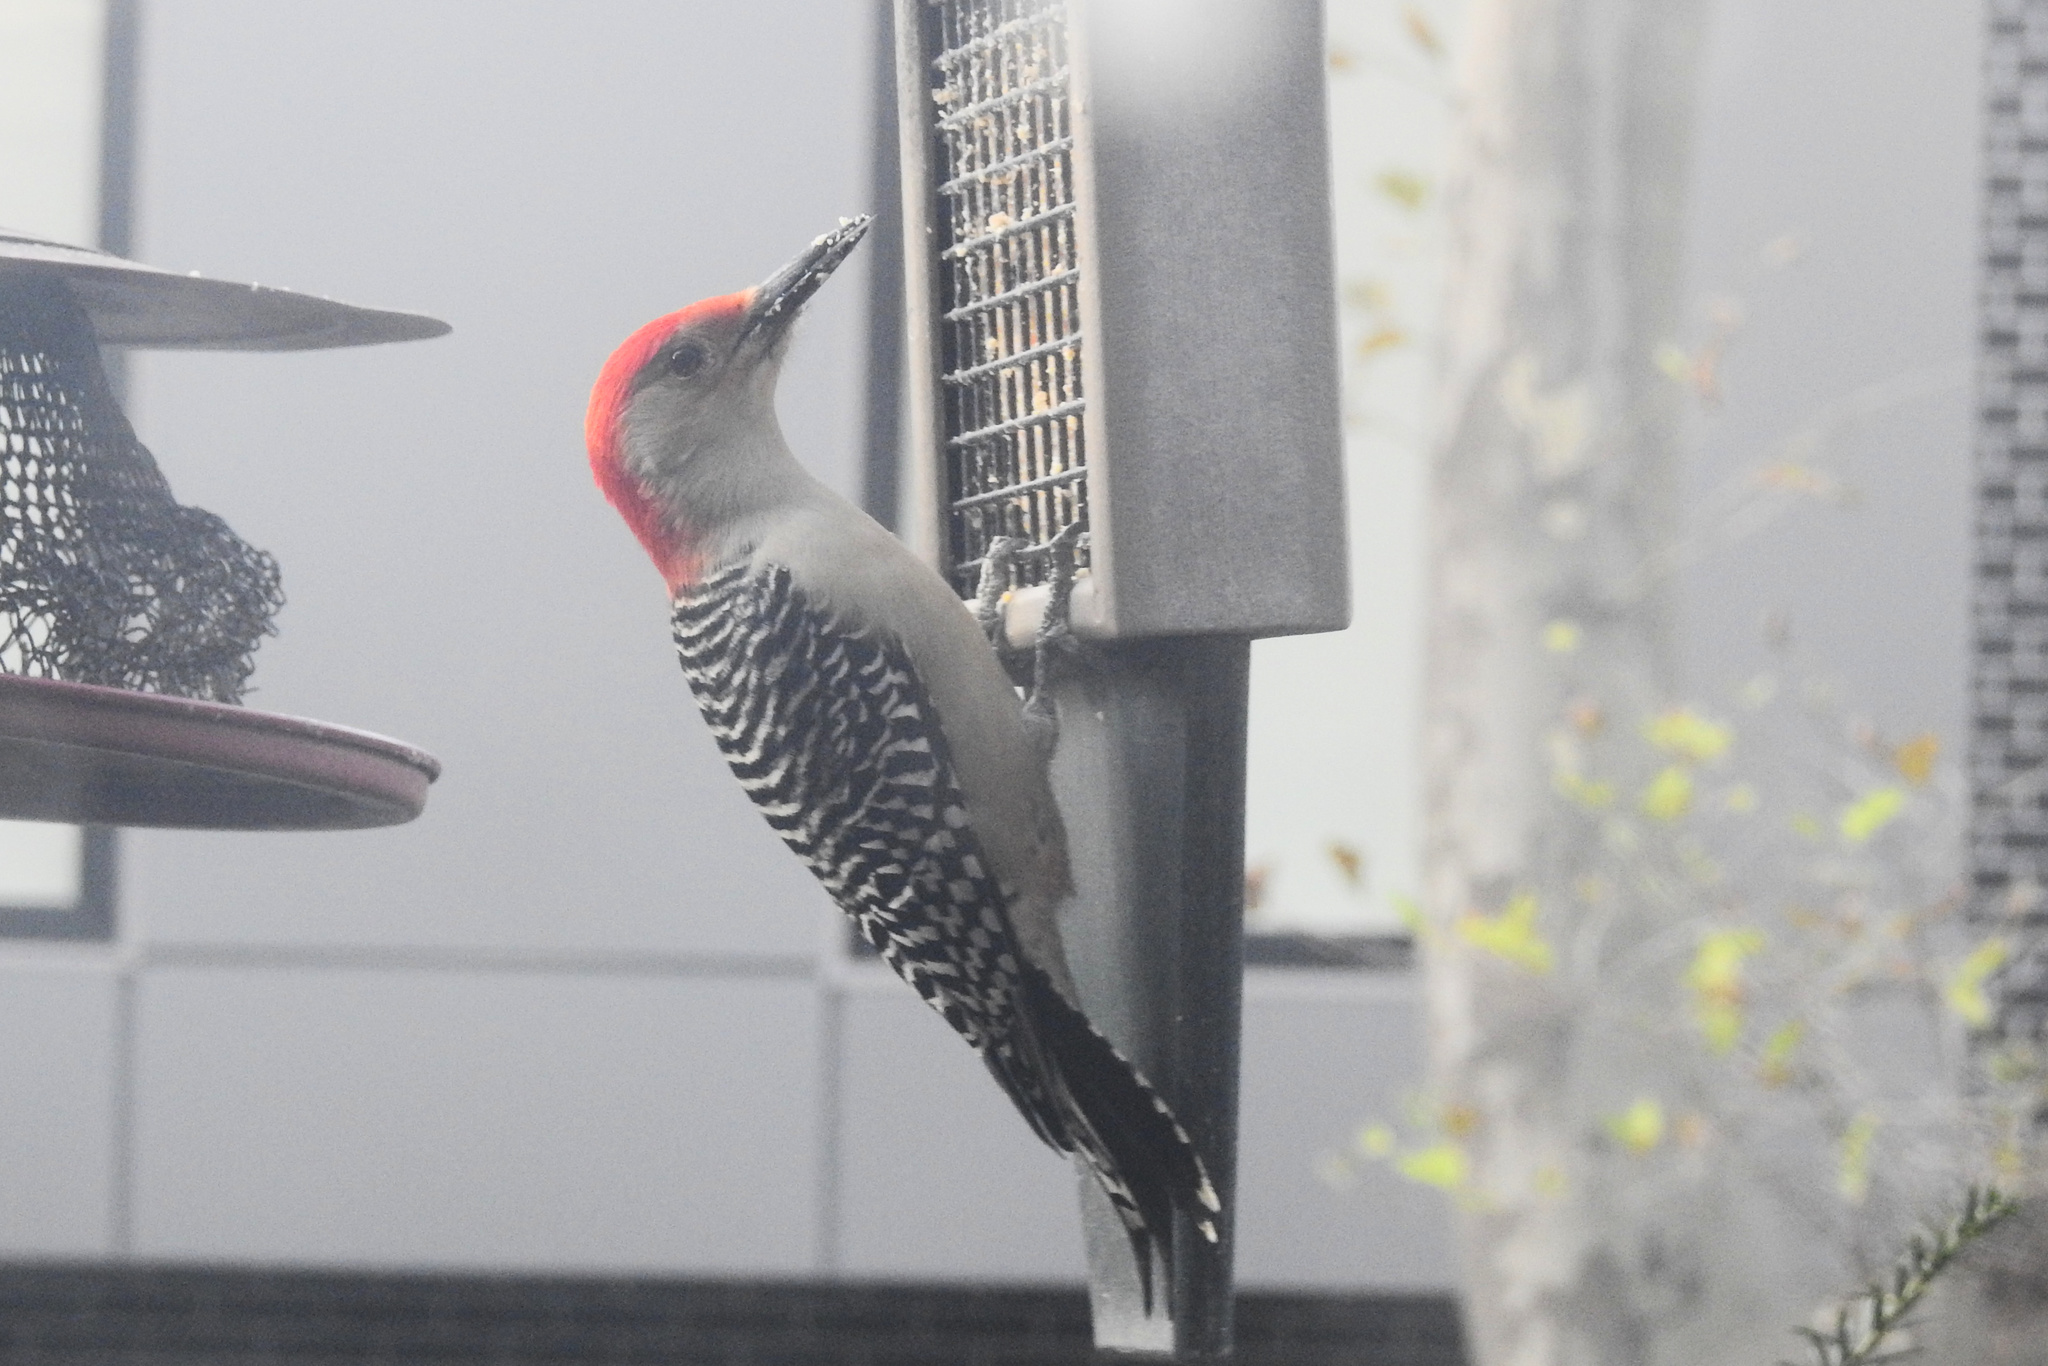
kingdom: Animalia
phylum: Chordata
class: Aves
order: Piciformes
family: Picidae
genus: Melanerpes
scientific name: Melanerpes carolinus
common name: Red-bellied woodpecker
